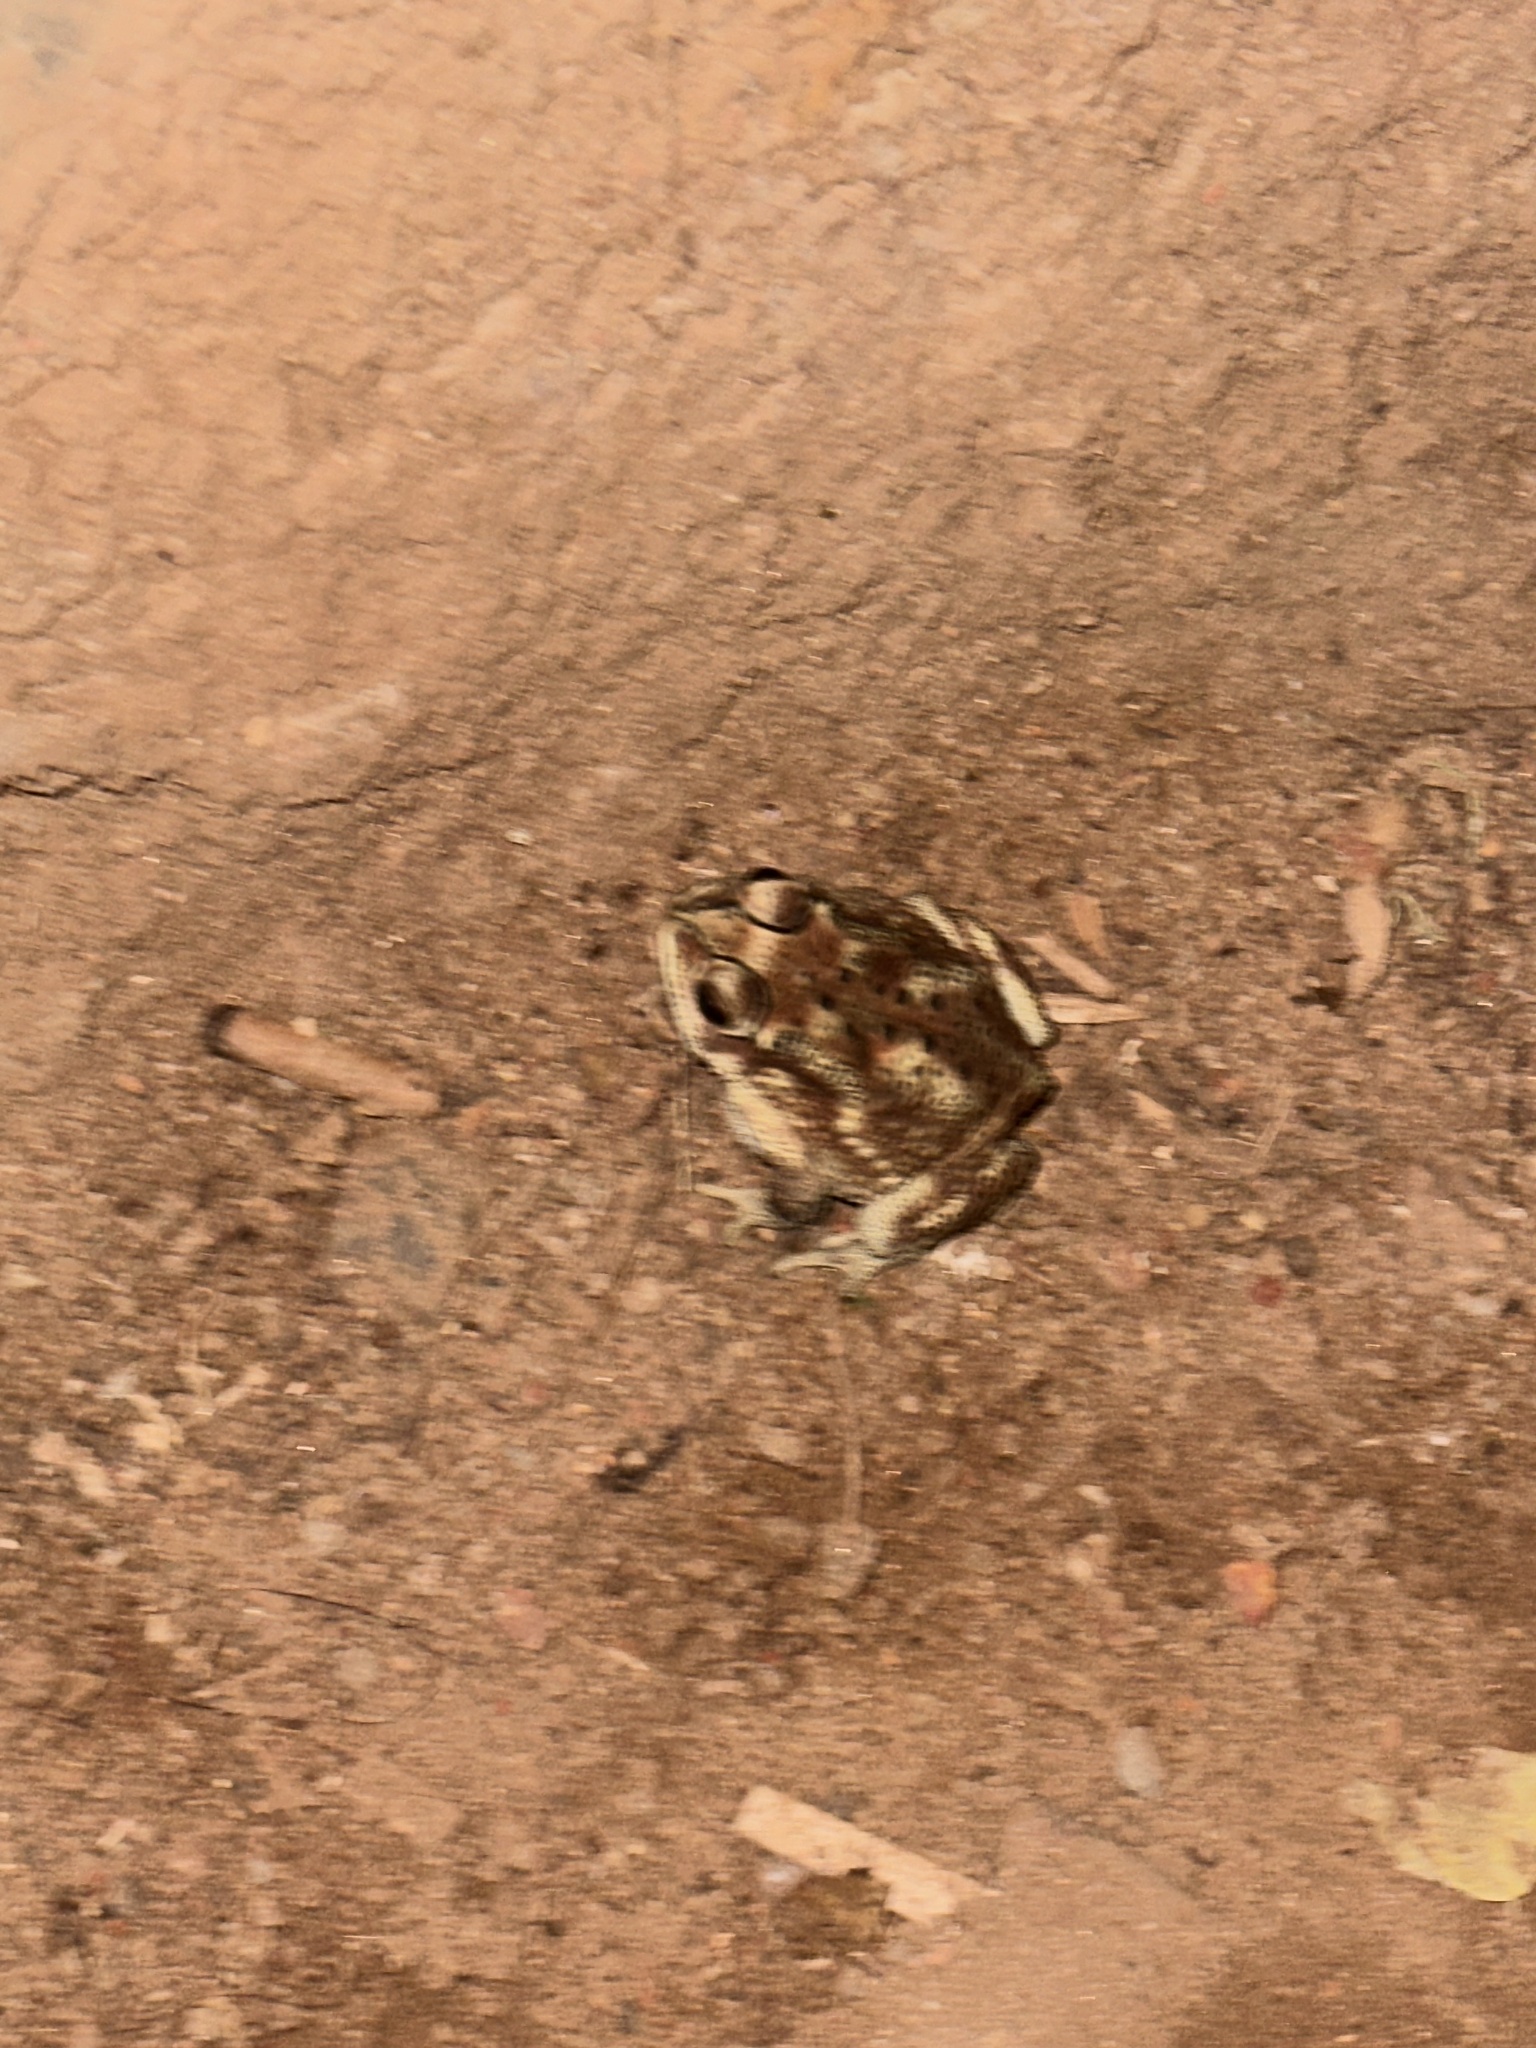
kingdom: Animalia
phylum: Chordata
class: Amphibia
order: Anura
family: Bufonidae
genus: Duttaphrynus
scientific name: Duttaphrynus melanostictus
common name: Common sunda toad
